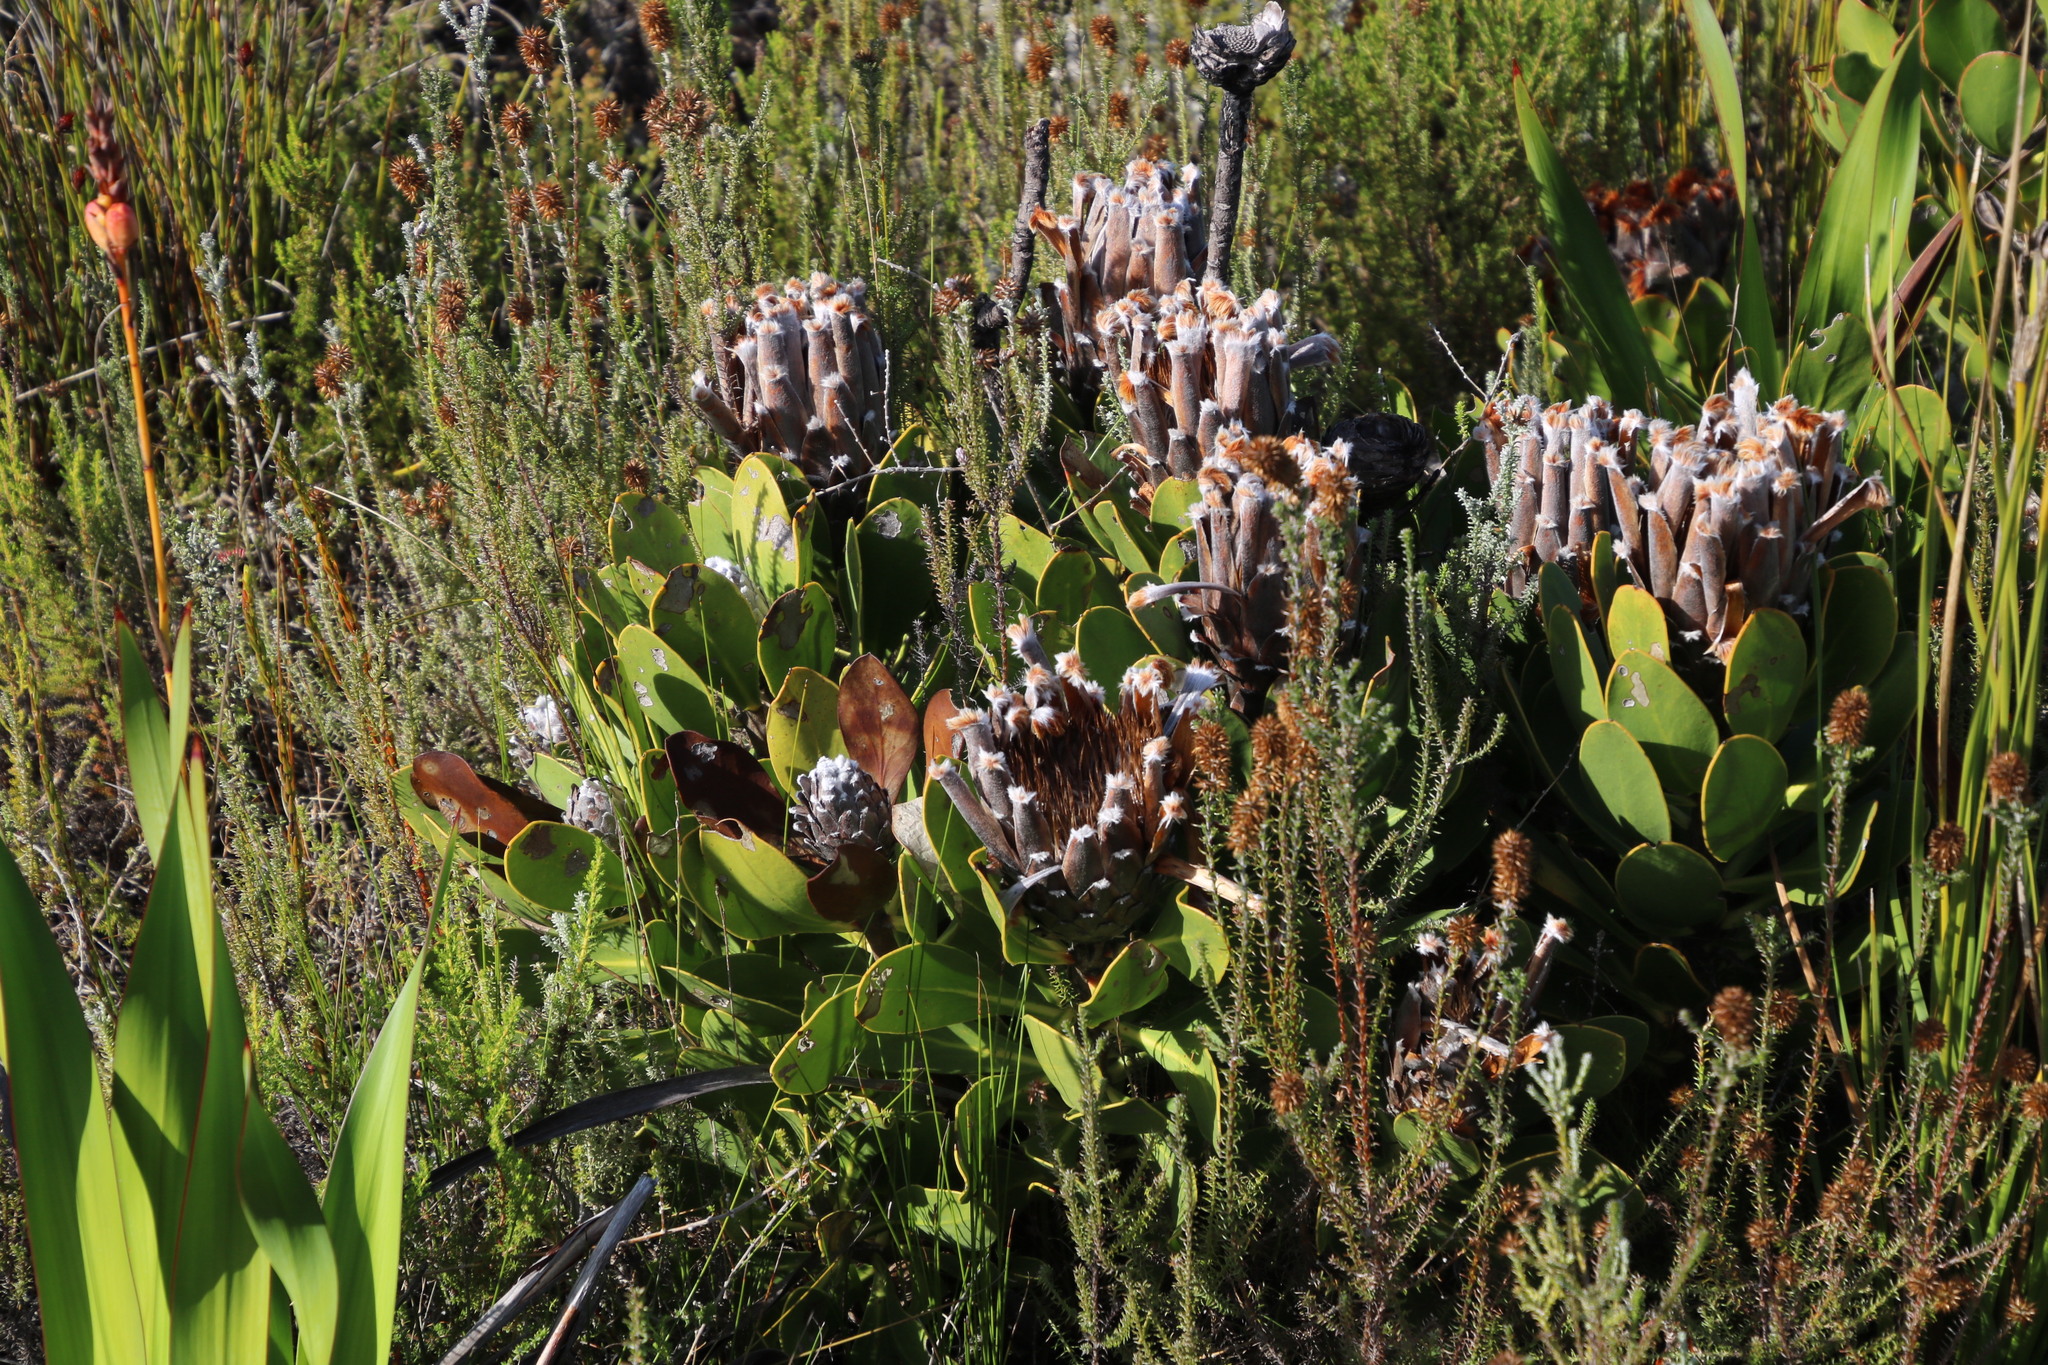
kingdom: Plantae
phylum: Tracheophyta
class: Magnoliopsida
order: Proteales
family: Proteaceae
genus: Protea
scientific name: Protea speciosa
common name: Brown-beard sugarbush
